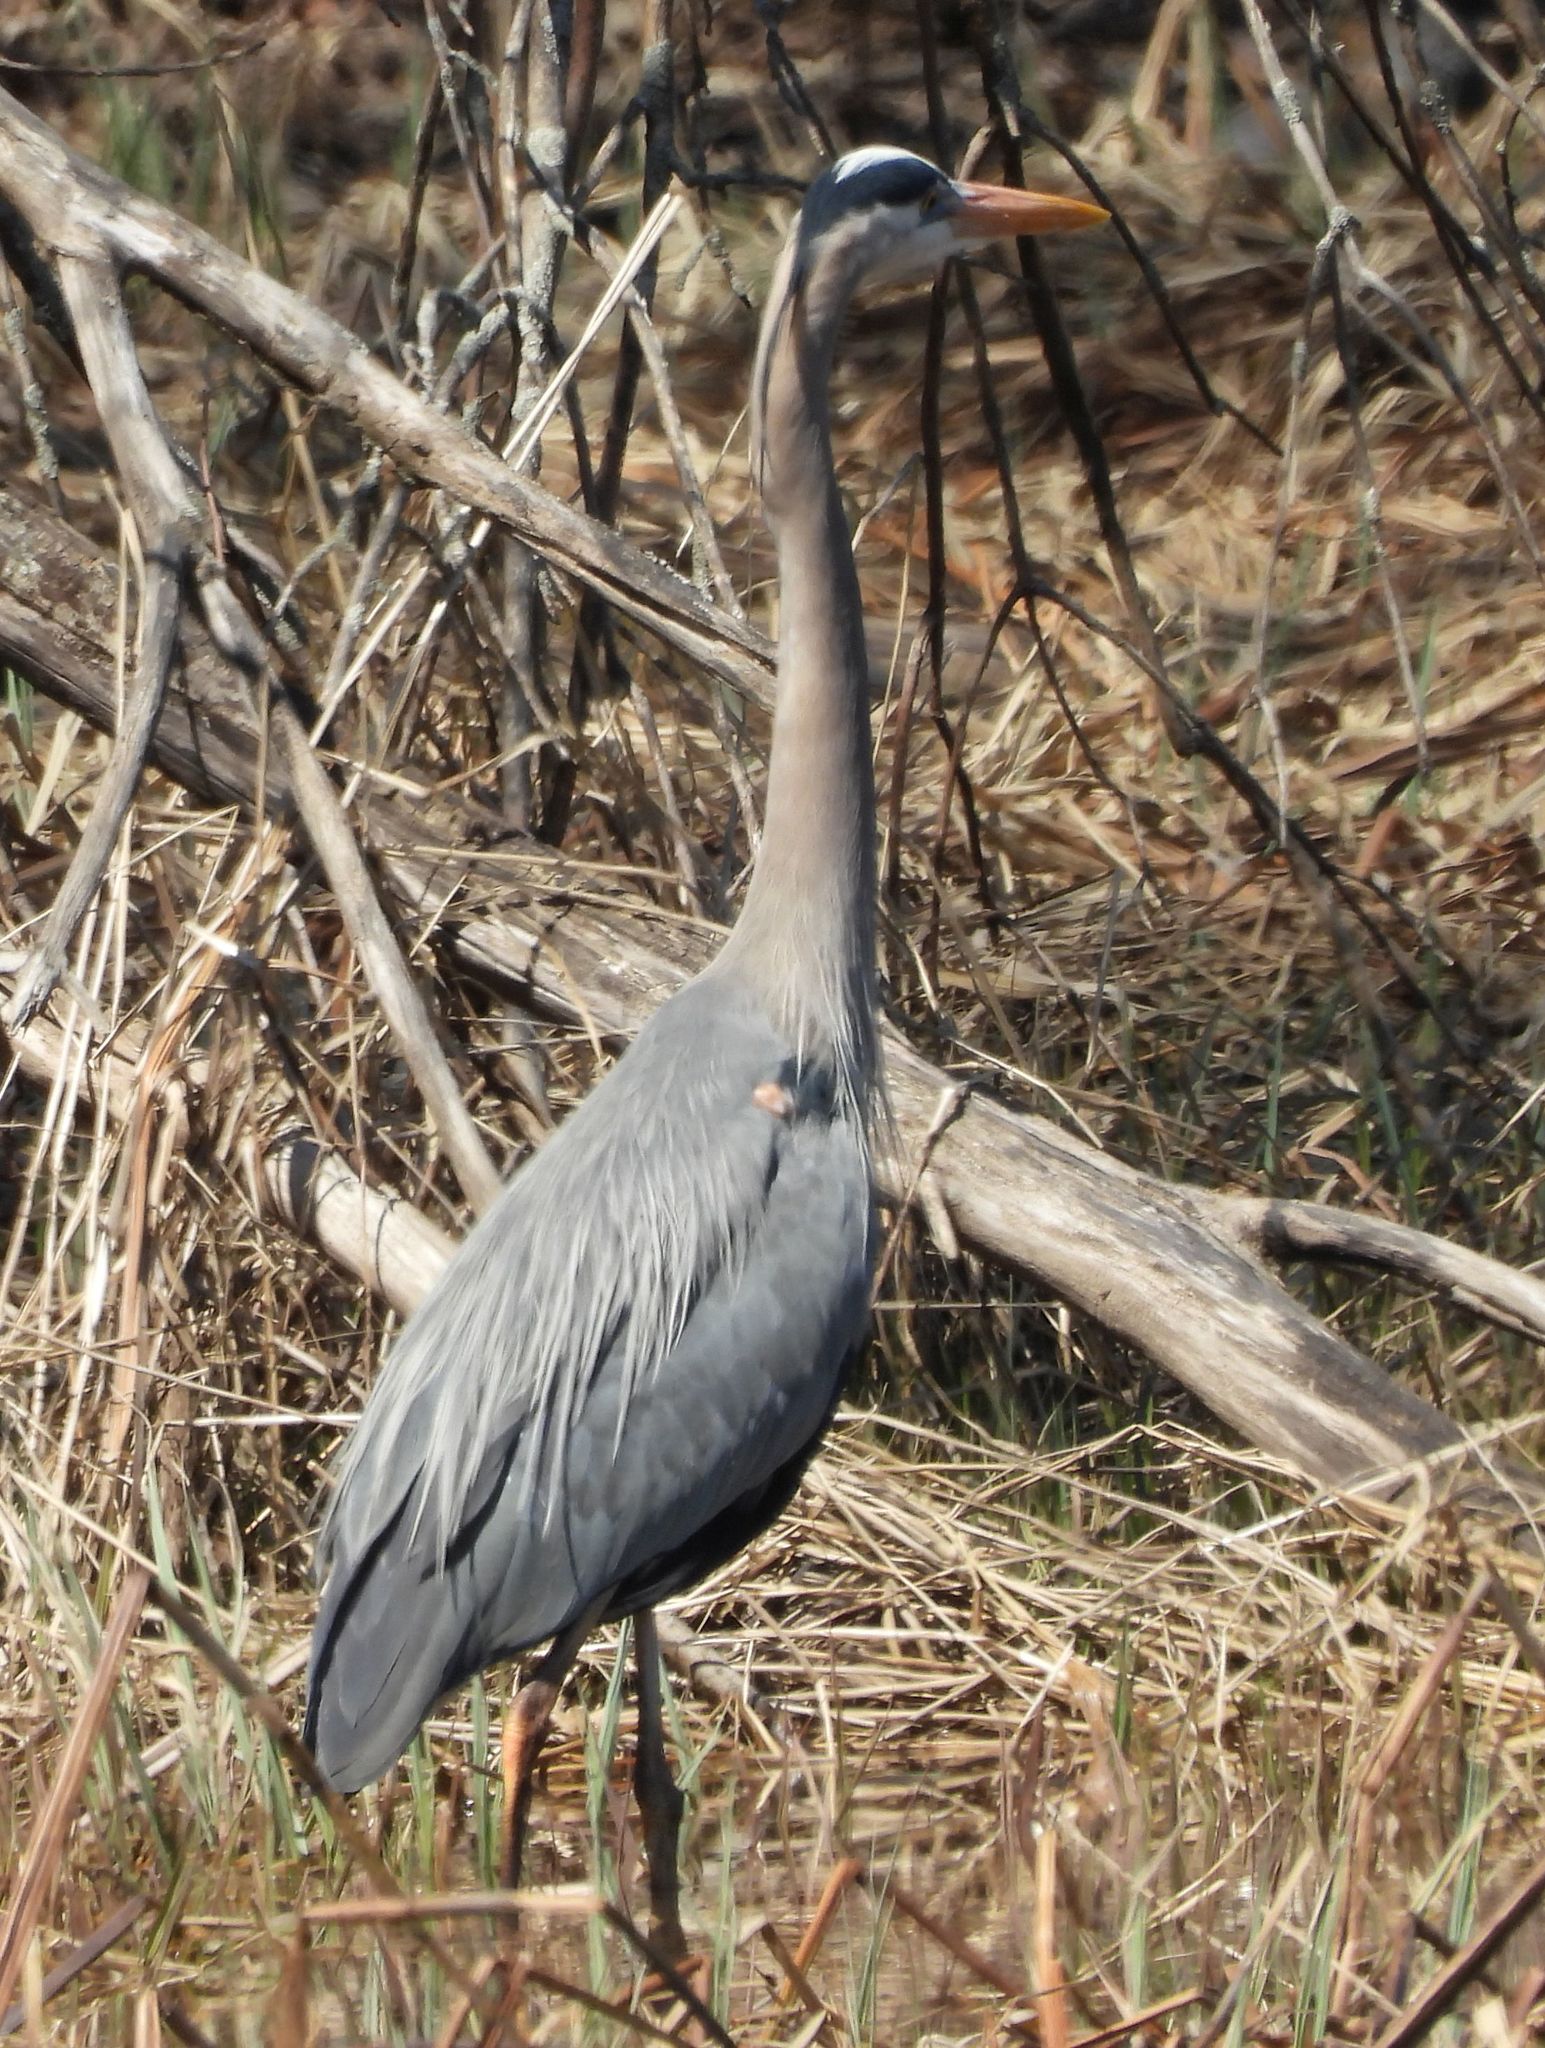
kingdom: Animalia
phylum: Chordata
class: Aves
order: Pelecaniformes
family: Ardeidae
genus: Ardea
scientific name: Ardea herodias
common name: Great blue heron
